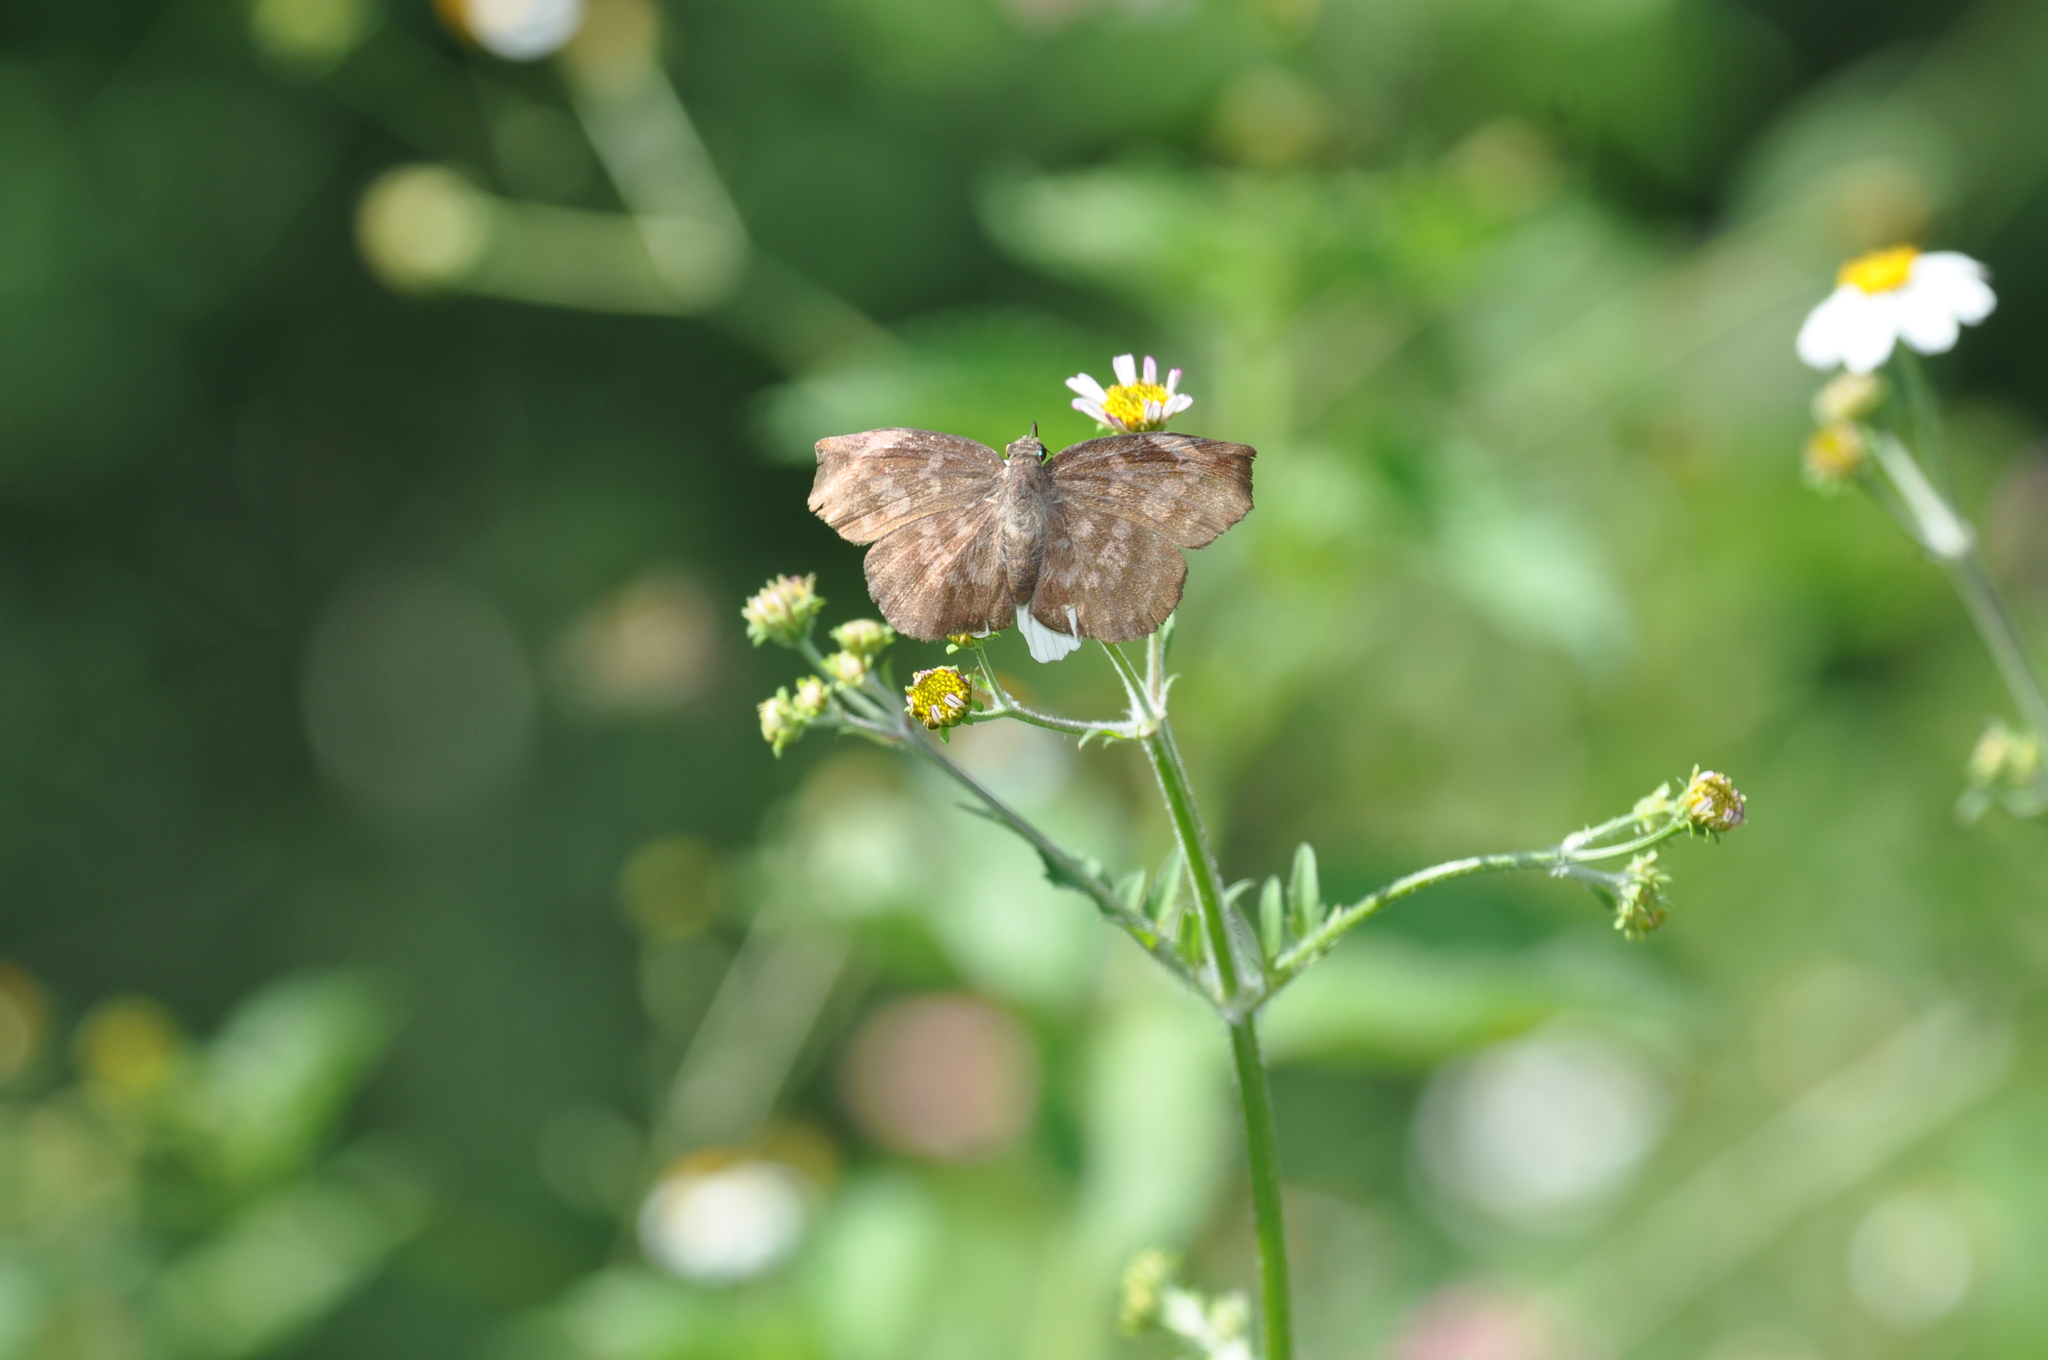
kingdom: Animalia
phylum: Arthropoda
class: Insecta
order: Lepidoptera
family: Hesperiidae
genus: Achlyodes
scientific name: Achlyodes thraso
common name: Sickle-winged skipper
